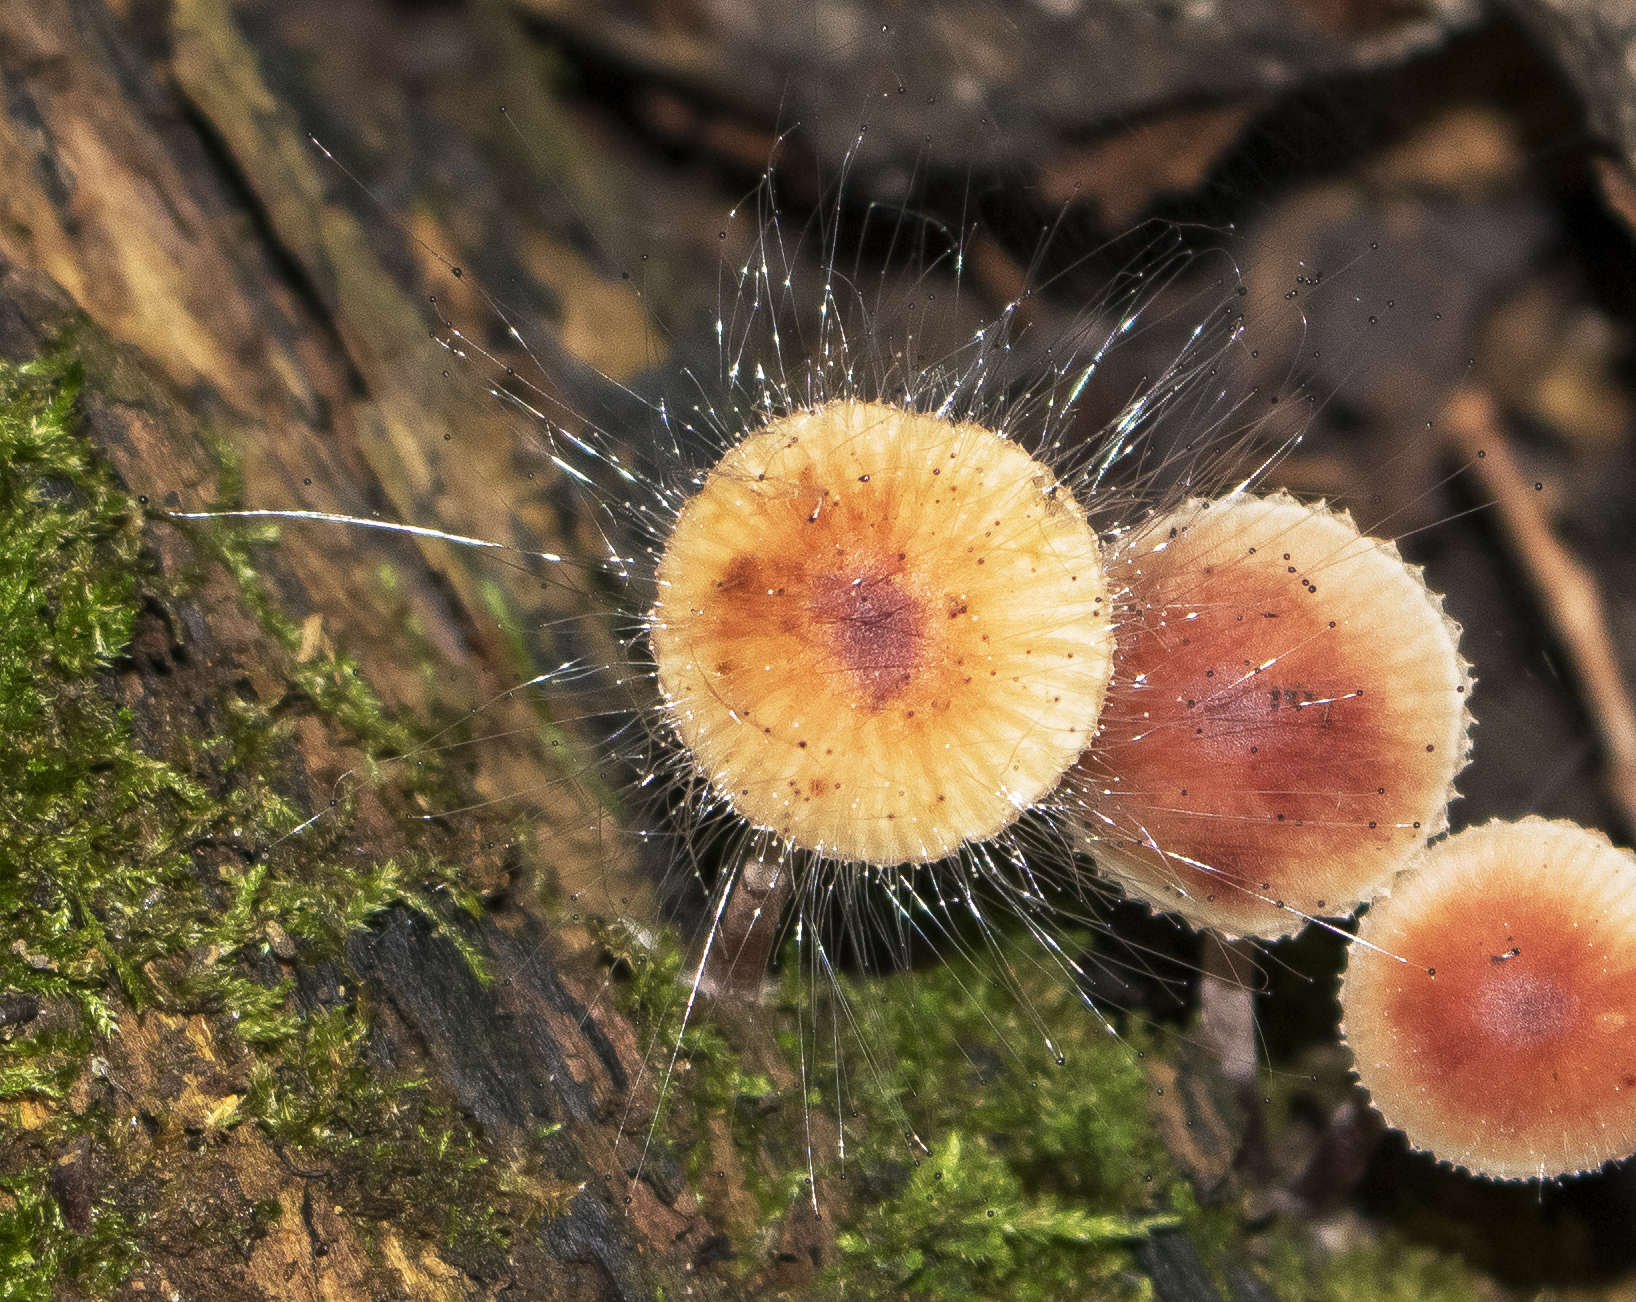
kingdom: Fungi
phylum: Mucoromycota
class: Mucoromycetes
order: Mucorales
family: Phycomycetaceae
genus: Spinellus
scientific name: Spinellus fusiger
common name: Bonnet mould
